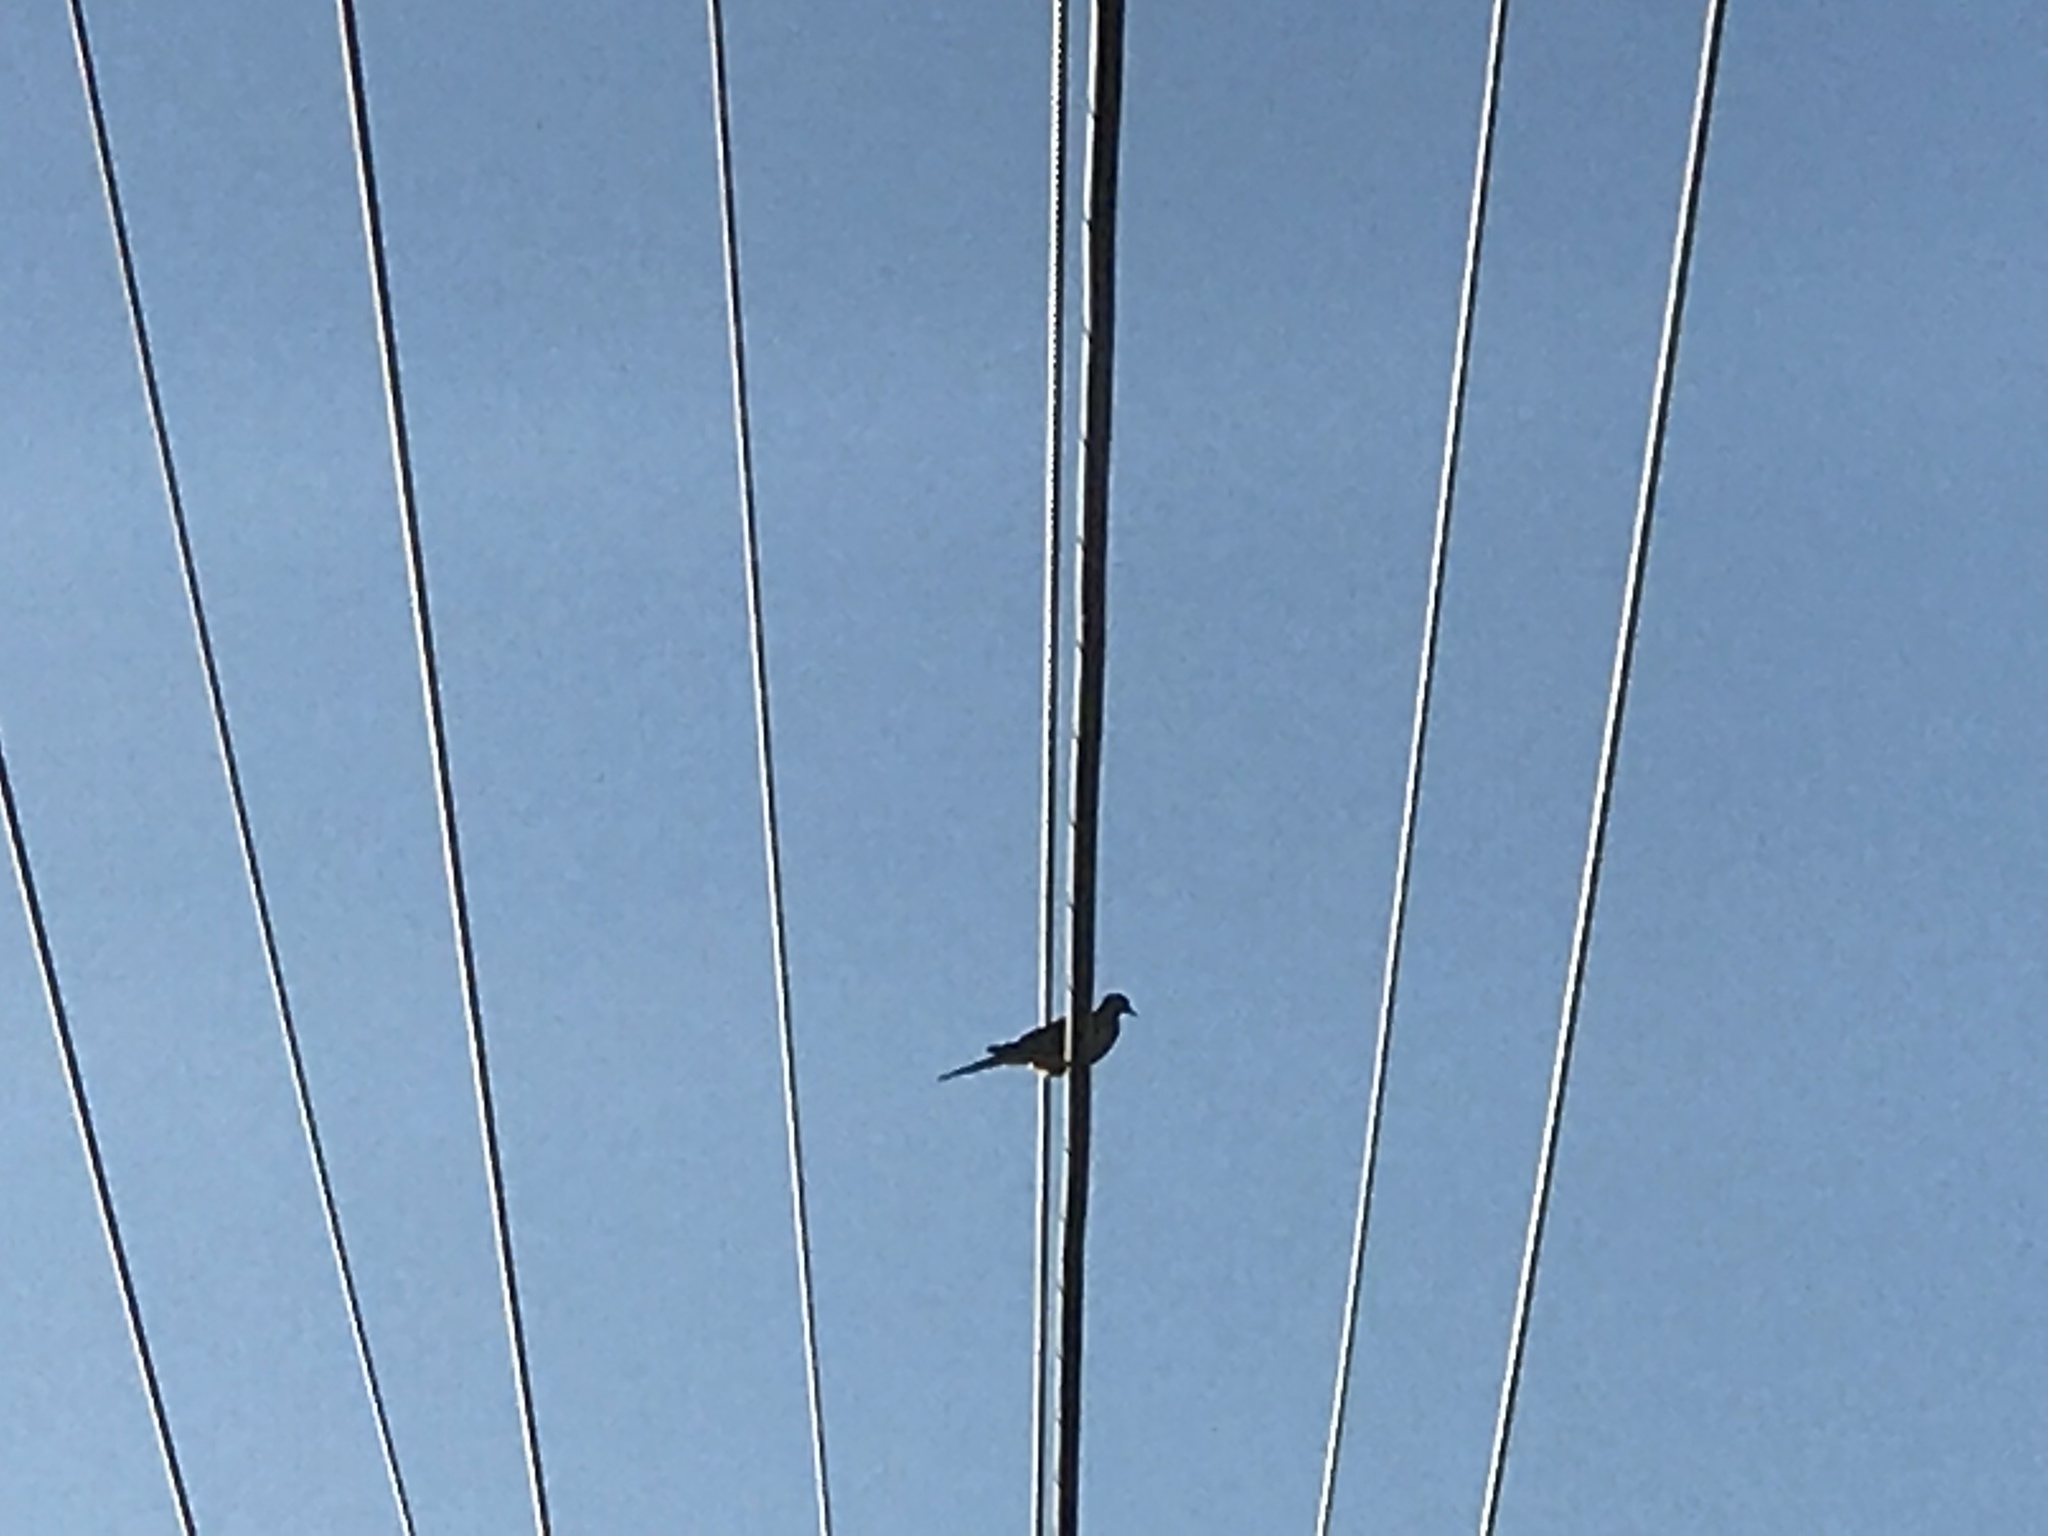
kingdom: Animalia
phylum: Chordata
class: Aves
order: Columbiformes
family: Columbidae
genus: Zenaida
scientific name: Zenaida macroura
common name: Mourning dove
